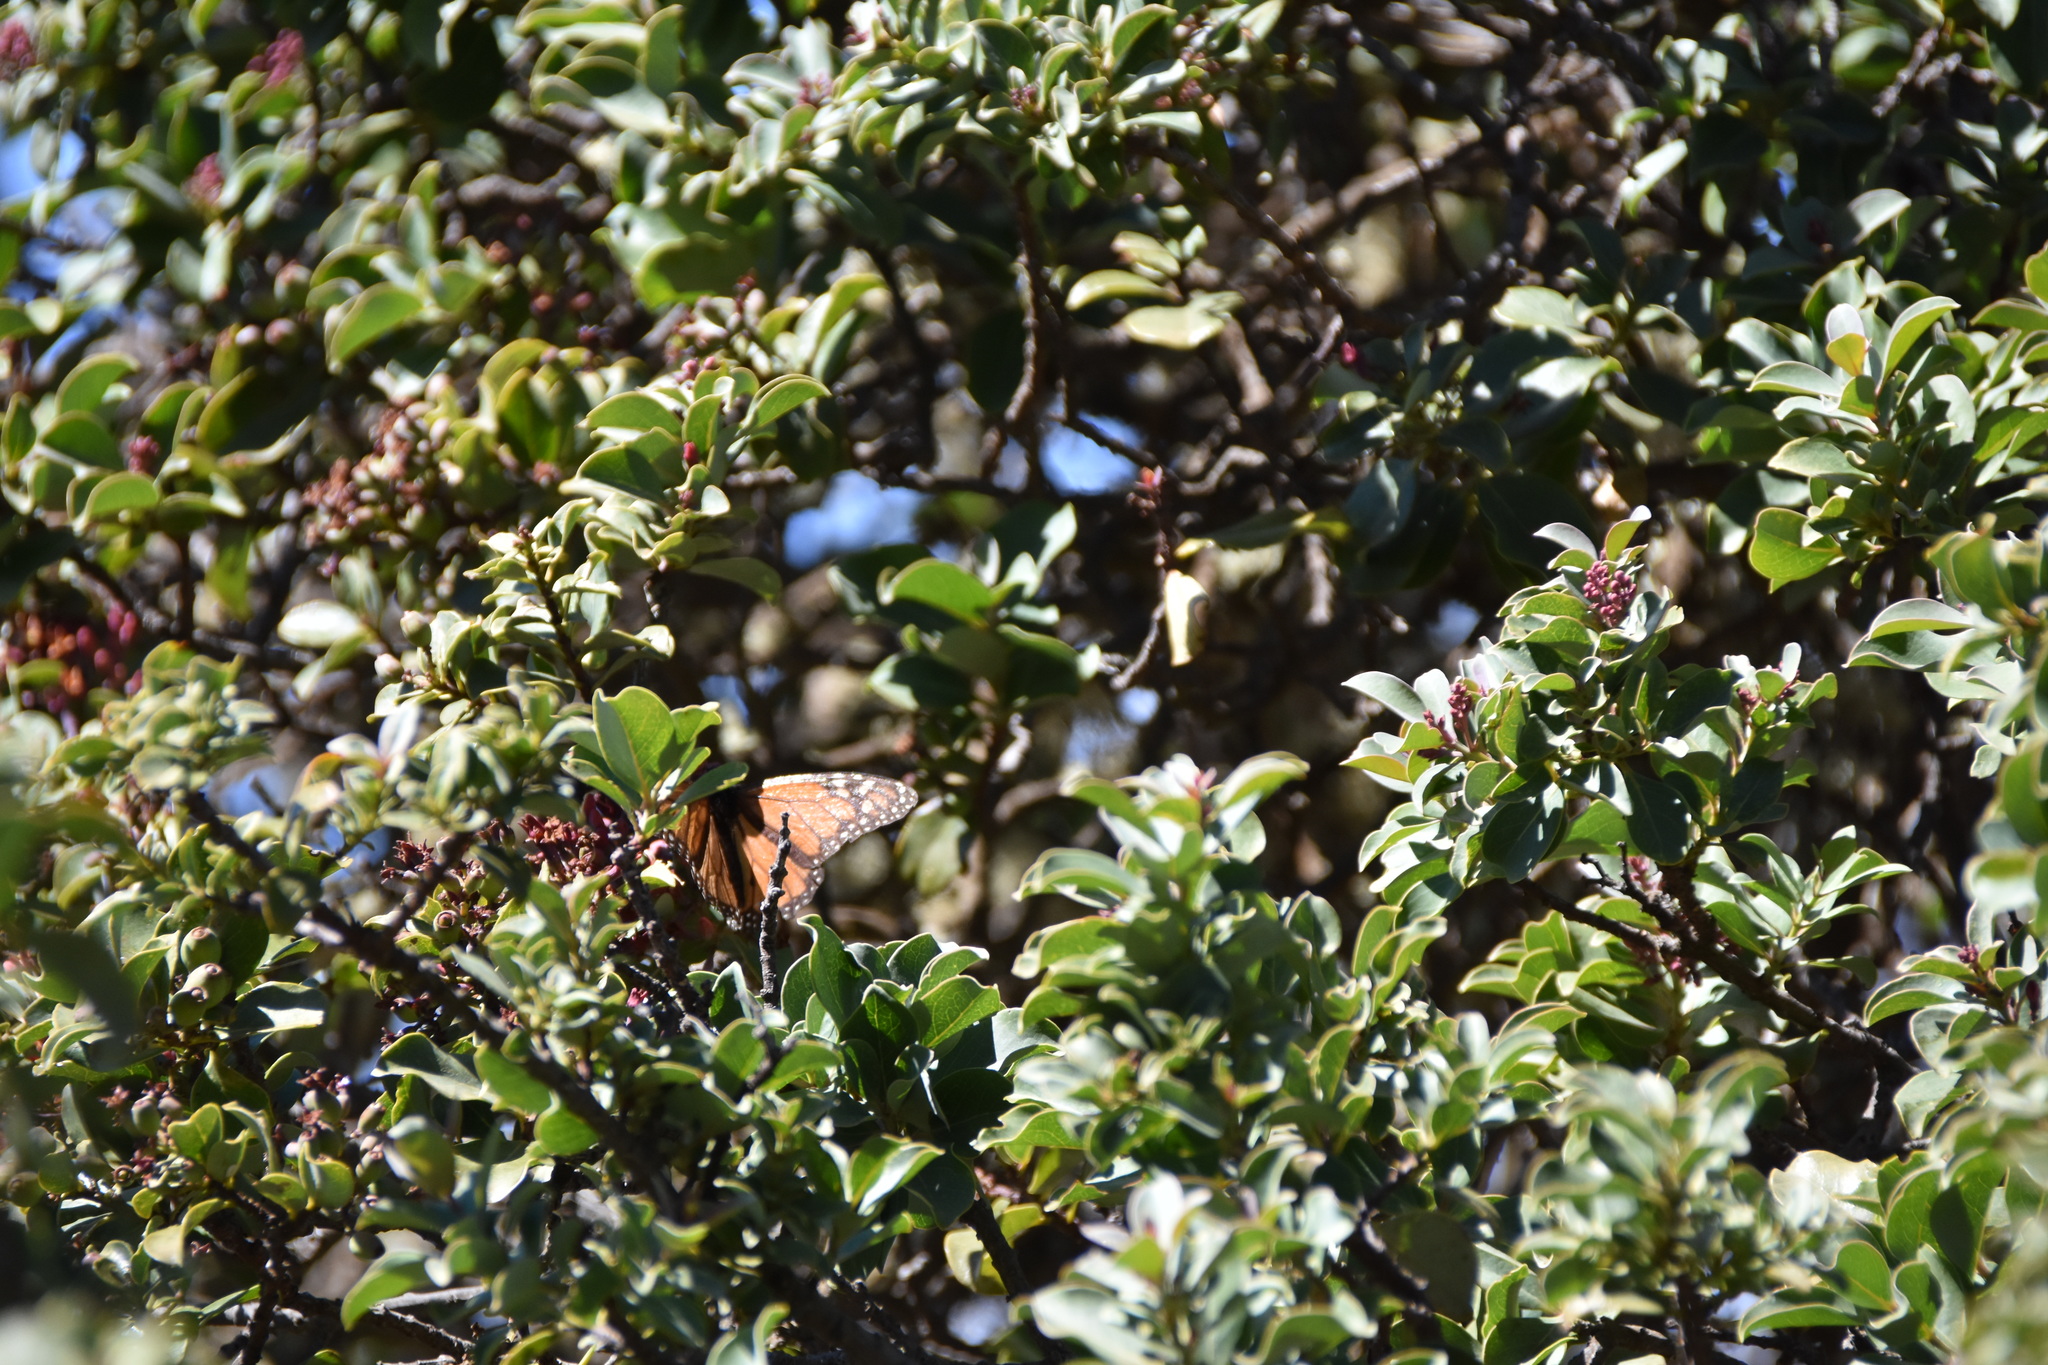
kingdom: Animalia
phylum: Arthropoda
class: Insecta
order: Lepidoptera
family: Nymphalidae
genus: Danaus
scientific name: Danaus plexippus
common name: Monarch
